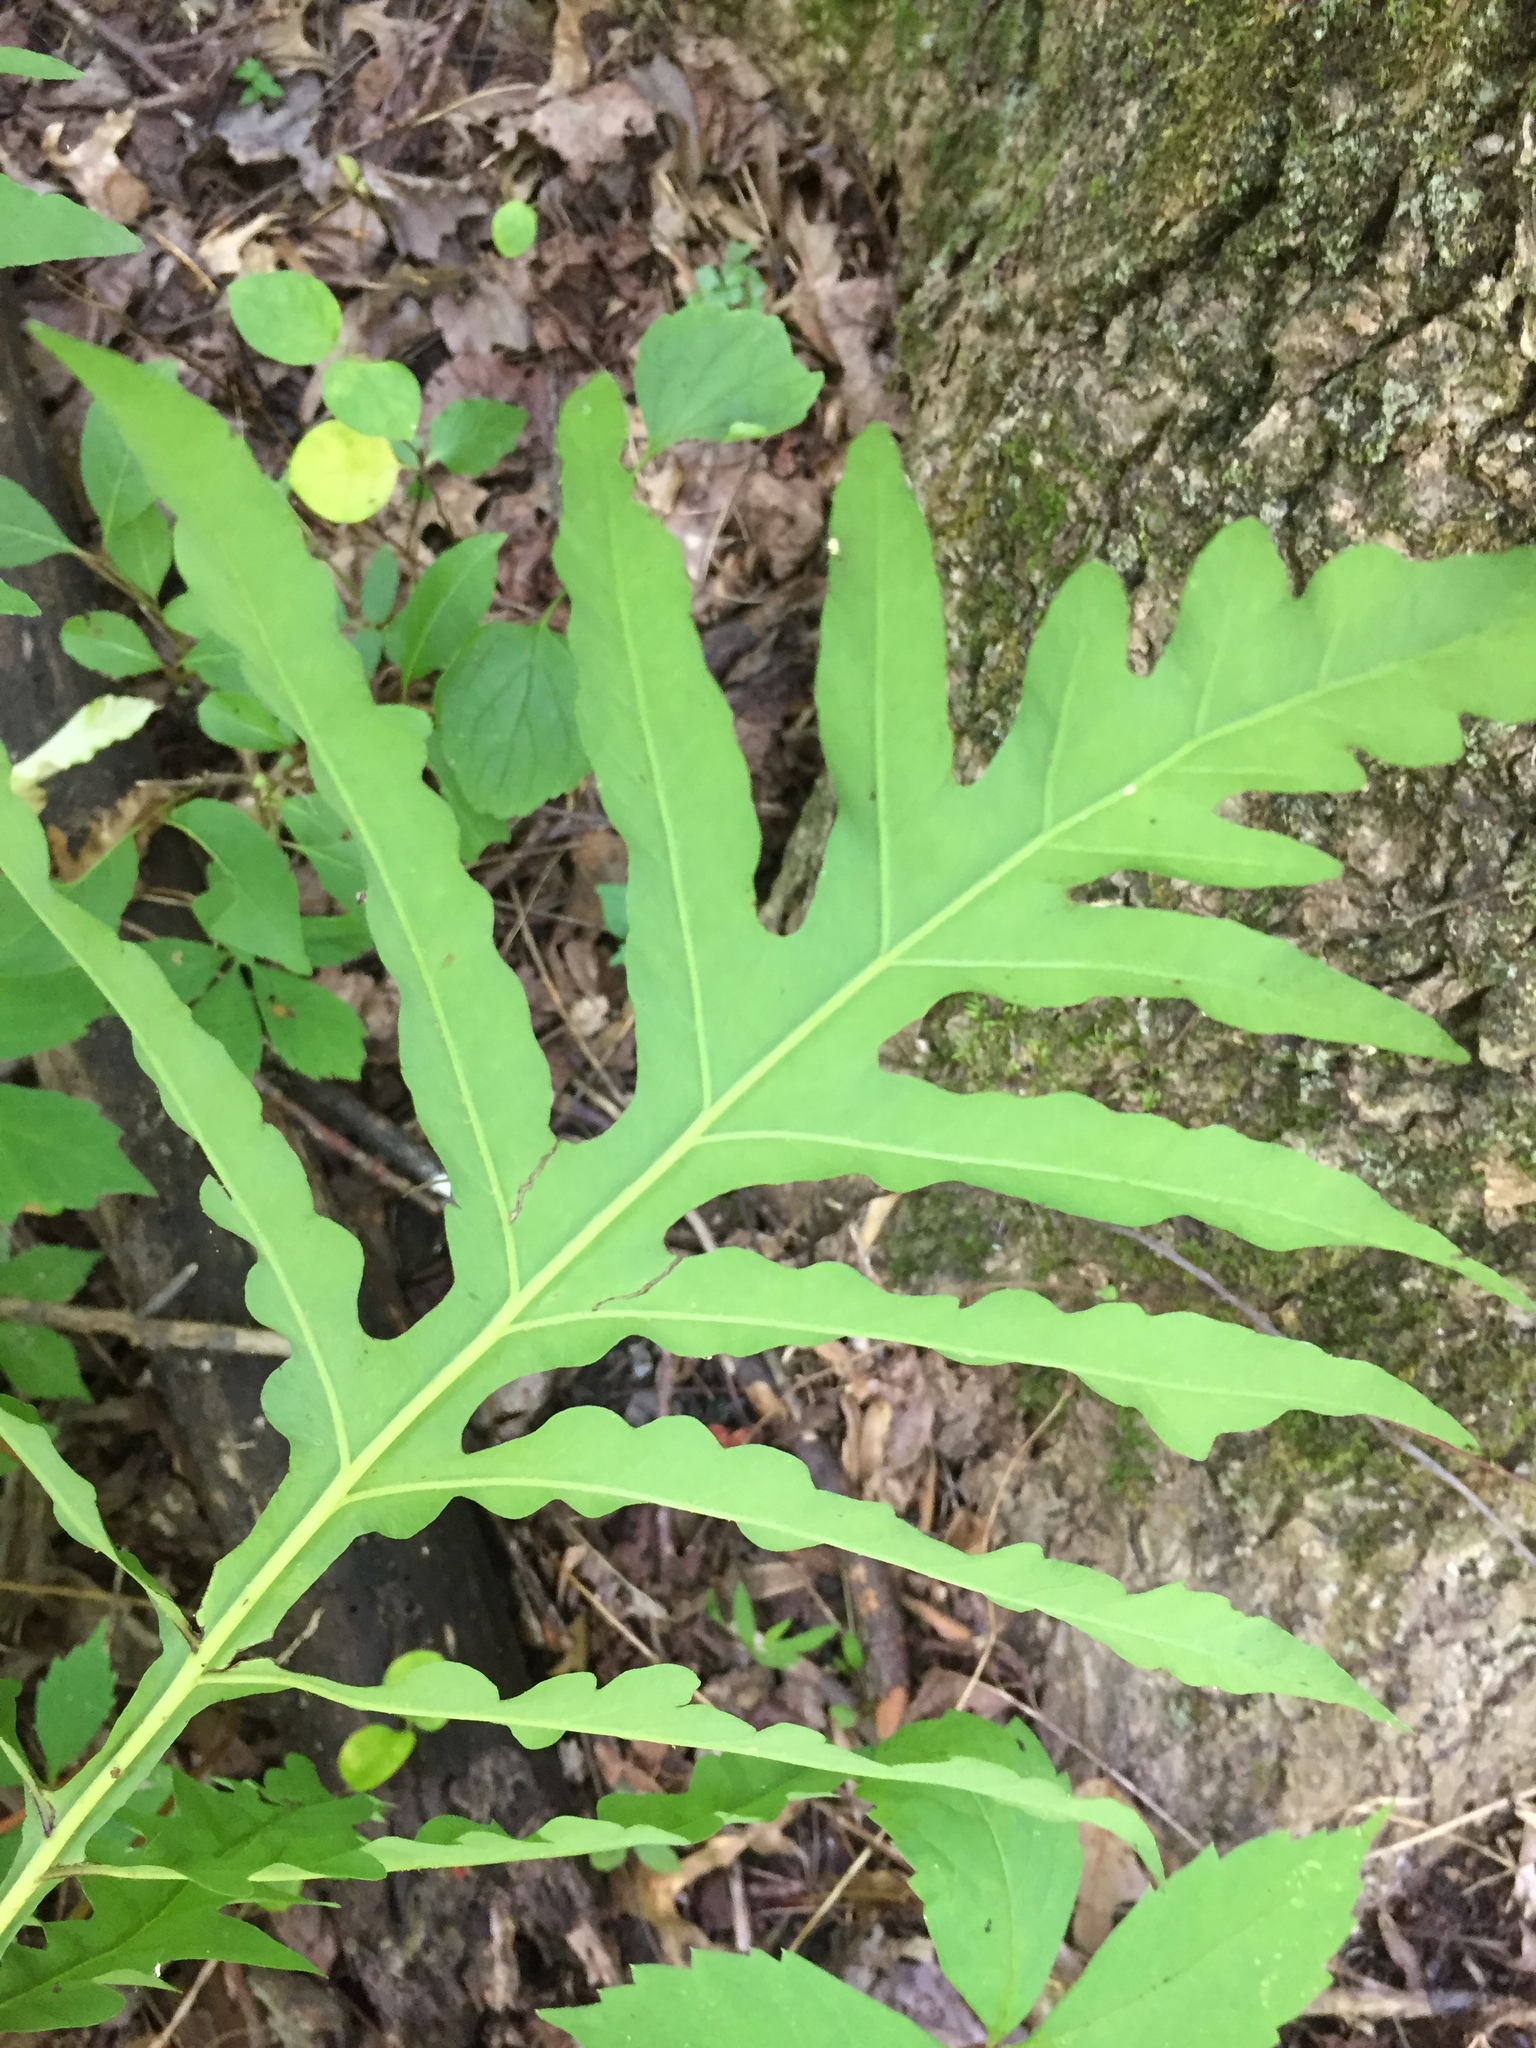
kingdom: Plantae
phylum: Tracheophyta
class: Polypodiopsida
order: Polypodiales
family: Onocleaceae
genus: Onoclea
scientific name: Onoclea sensibilis
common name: Sensitive fern
